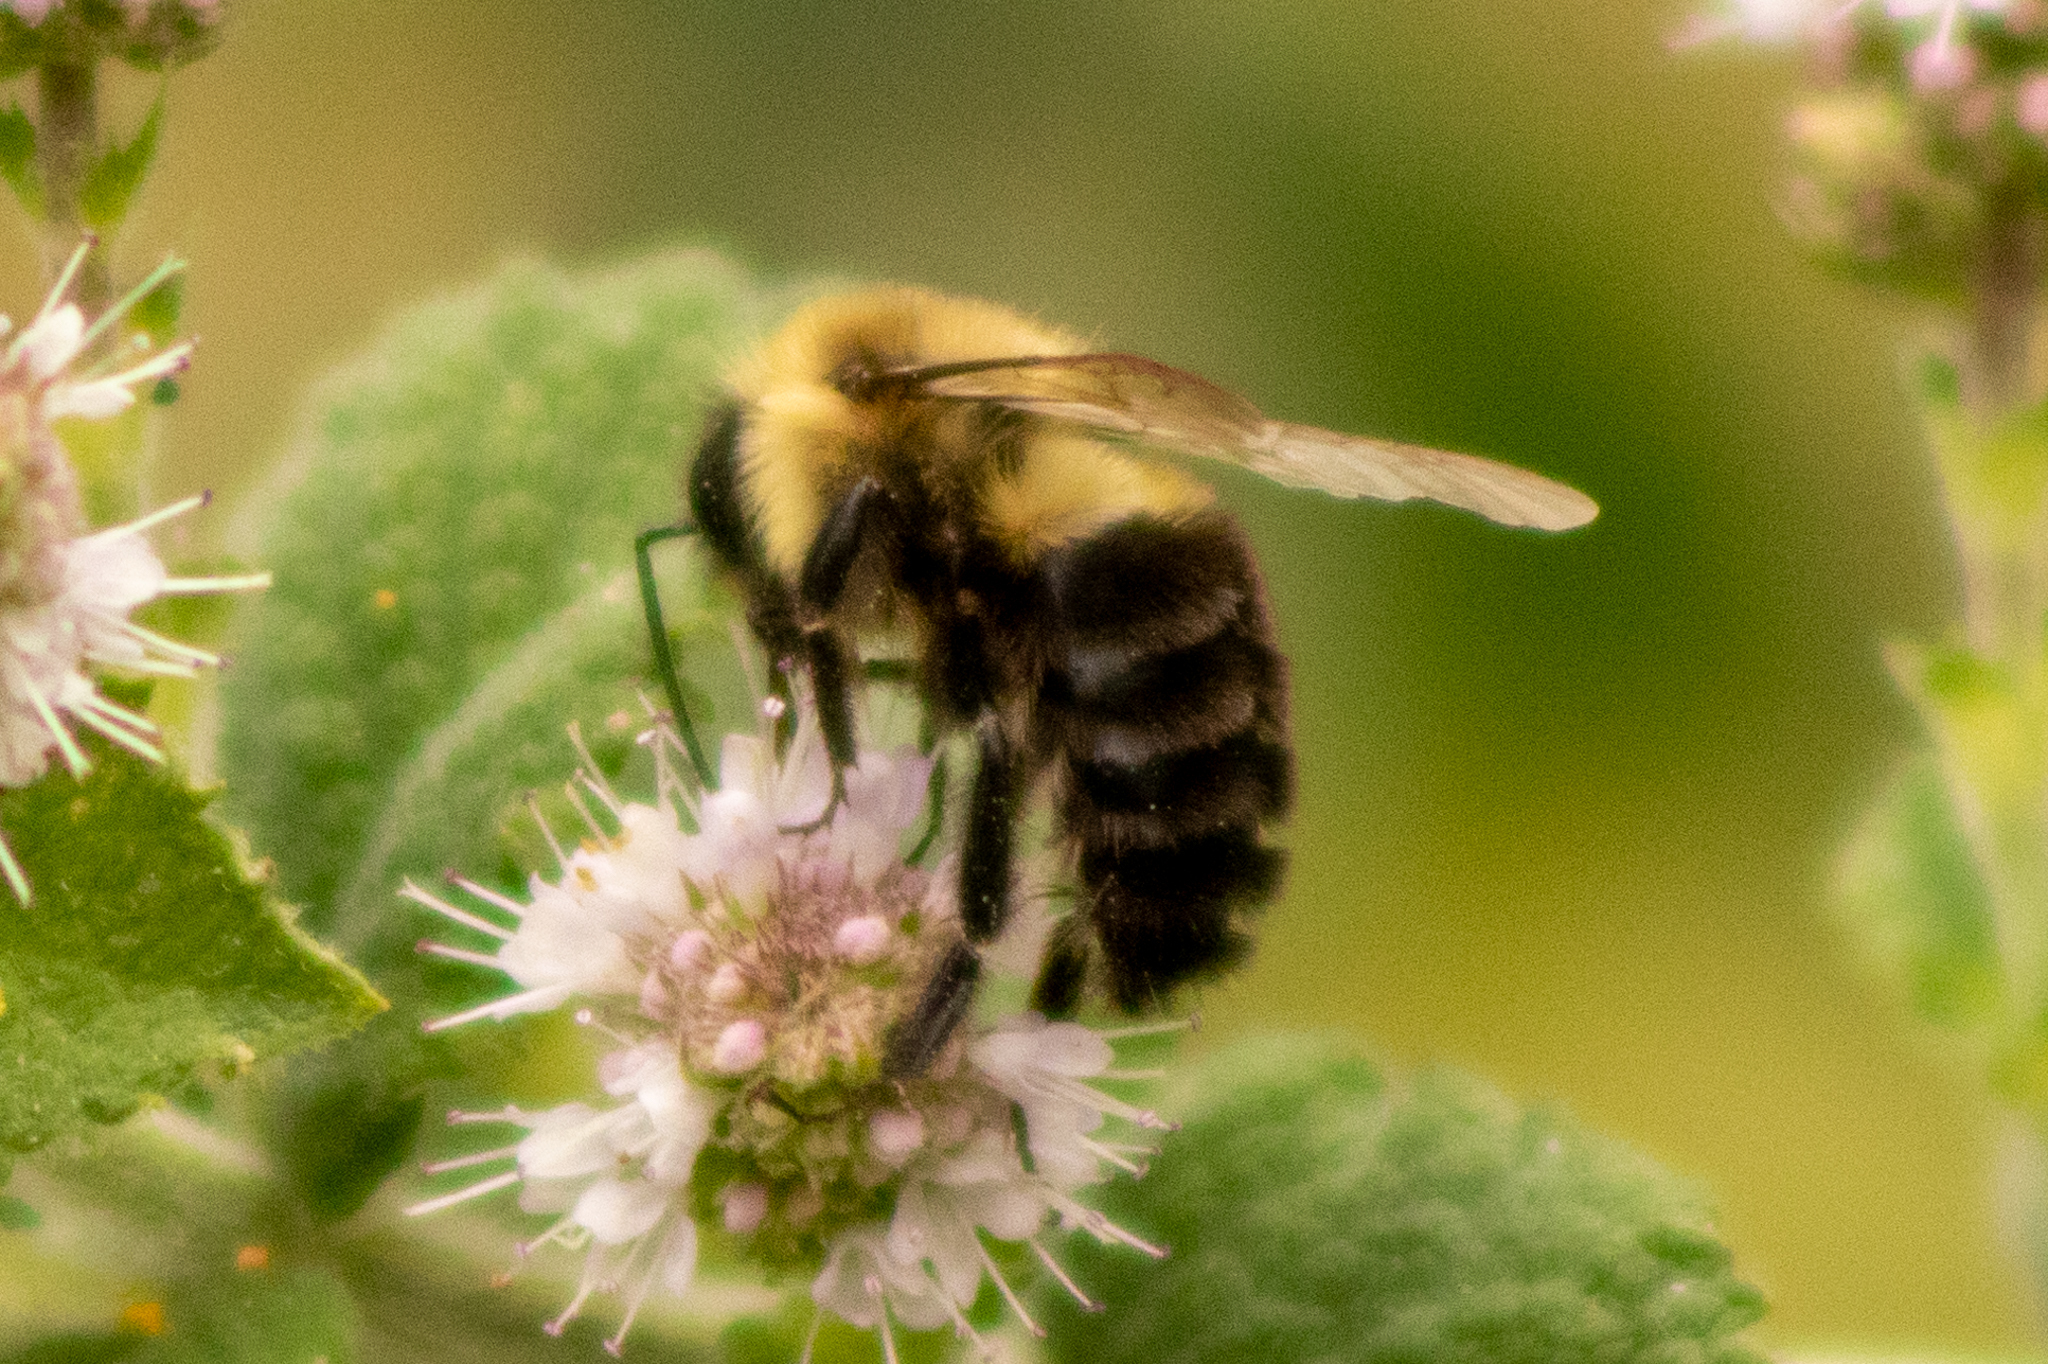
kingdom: Animalia
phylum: Arthropoda
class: Insecta
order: Hymenoptera
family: Apidae
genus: Bombus
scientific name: Bombus impatiens
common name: Common eastern bumble bee
